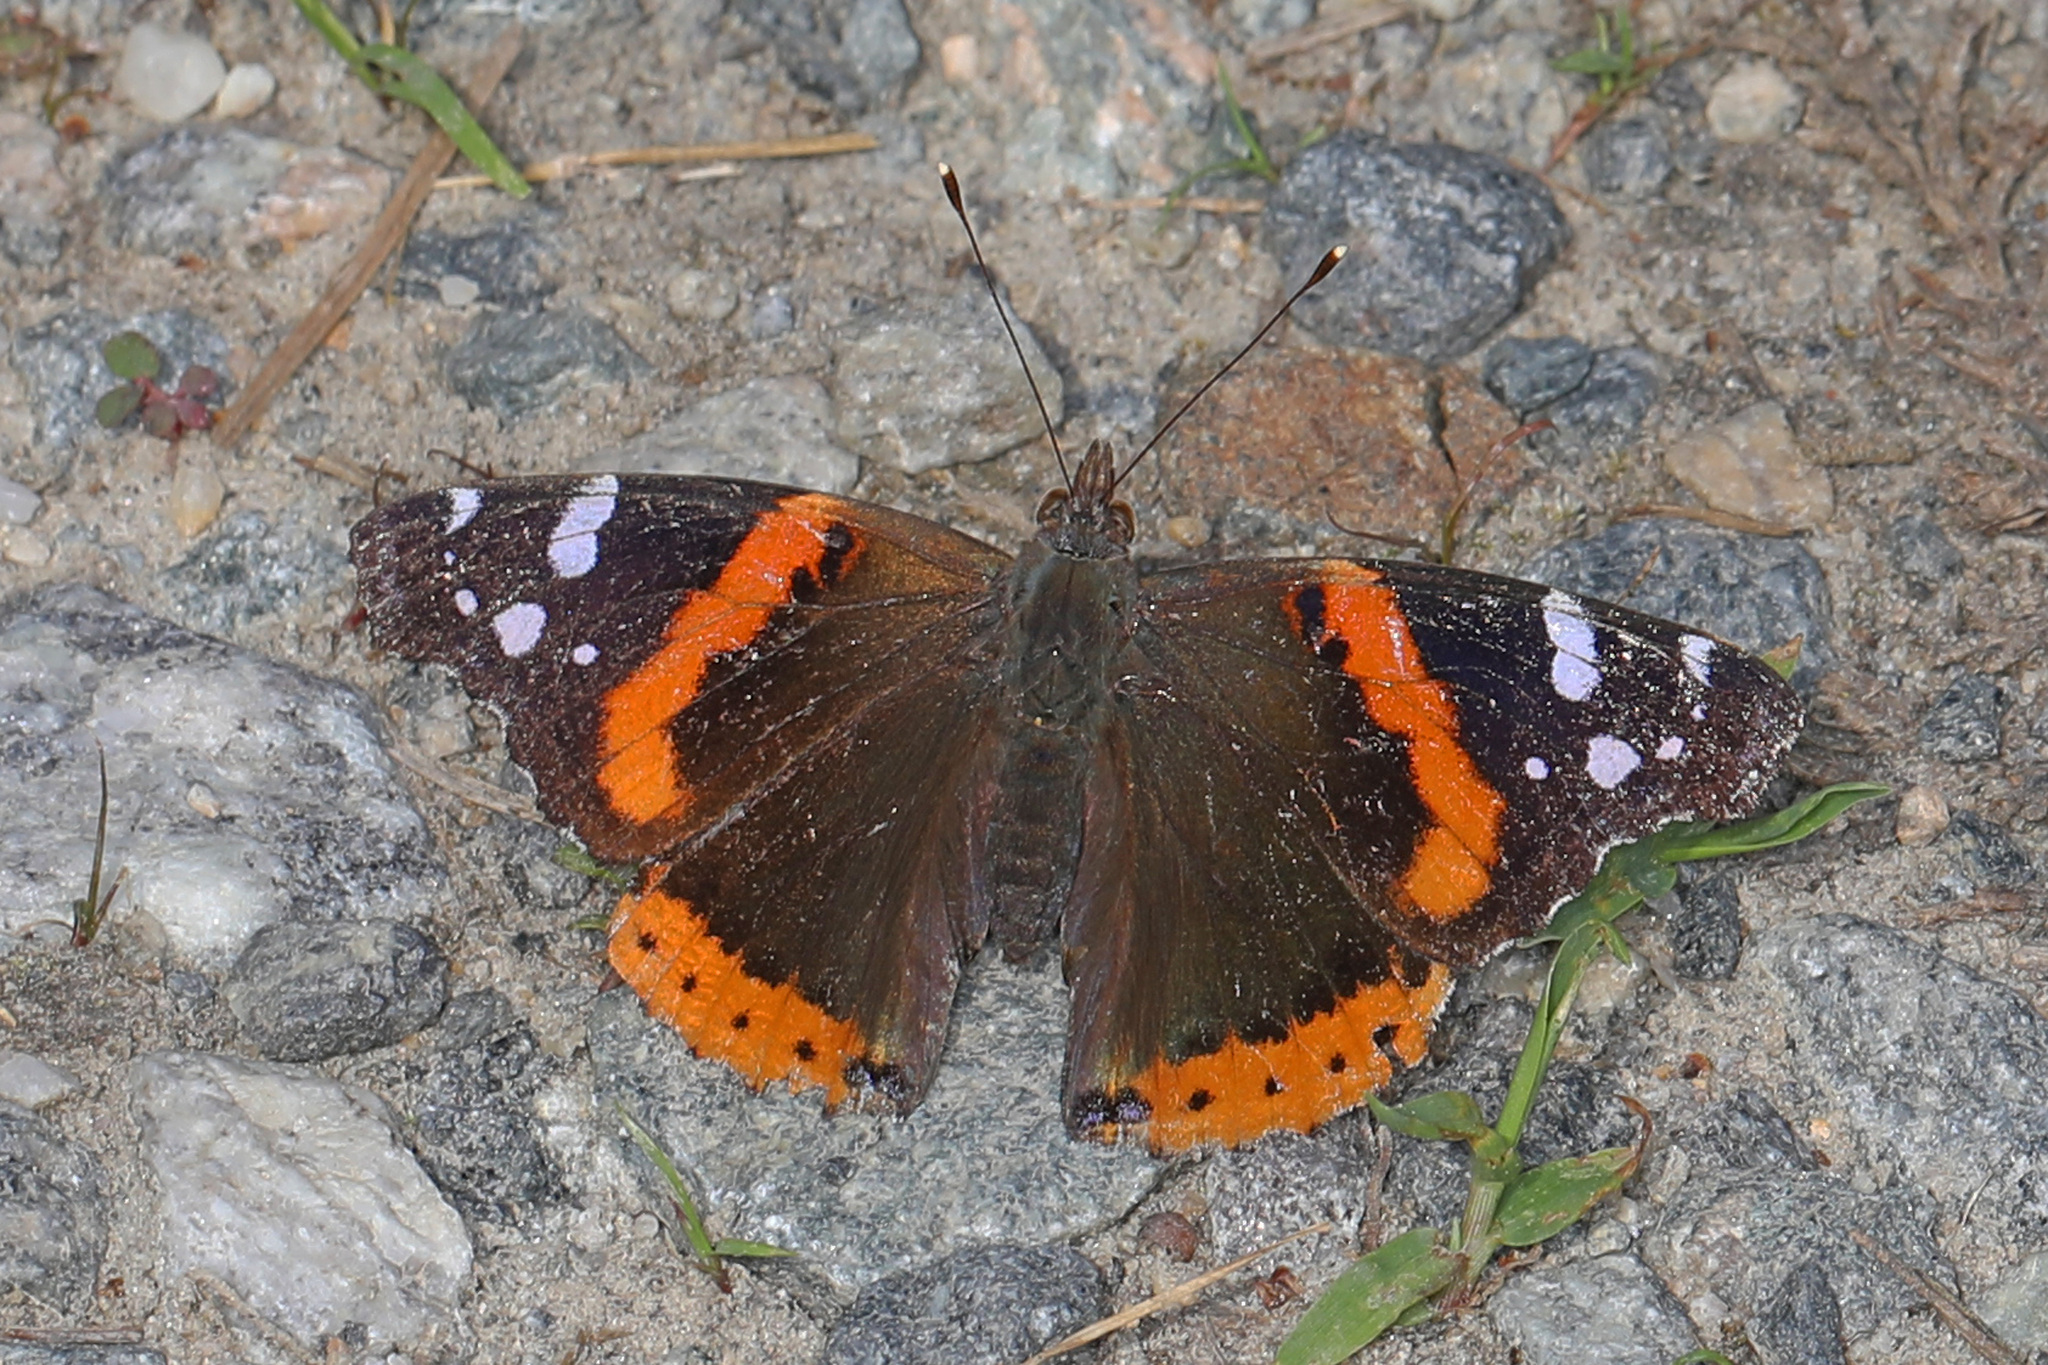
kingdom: Animalia
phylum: Arthropoda
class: Insecta
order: Lepidoptera
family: Nymphalidae
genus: Vanessa
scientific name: Vanessa atalanta
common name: Red admiral
